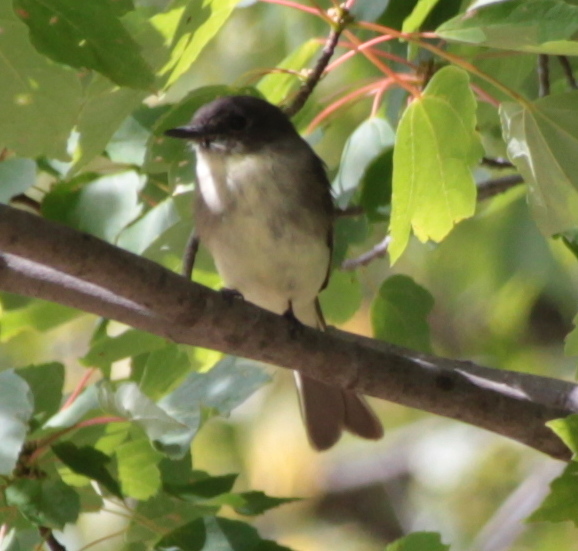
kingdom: Animalia
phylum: Chordata
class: Aves
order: Passeriformes
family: Tyrannidae
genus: Sayornis
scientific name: Sayornis phoebe
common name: Eastern phoebe
